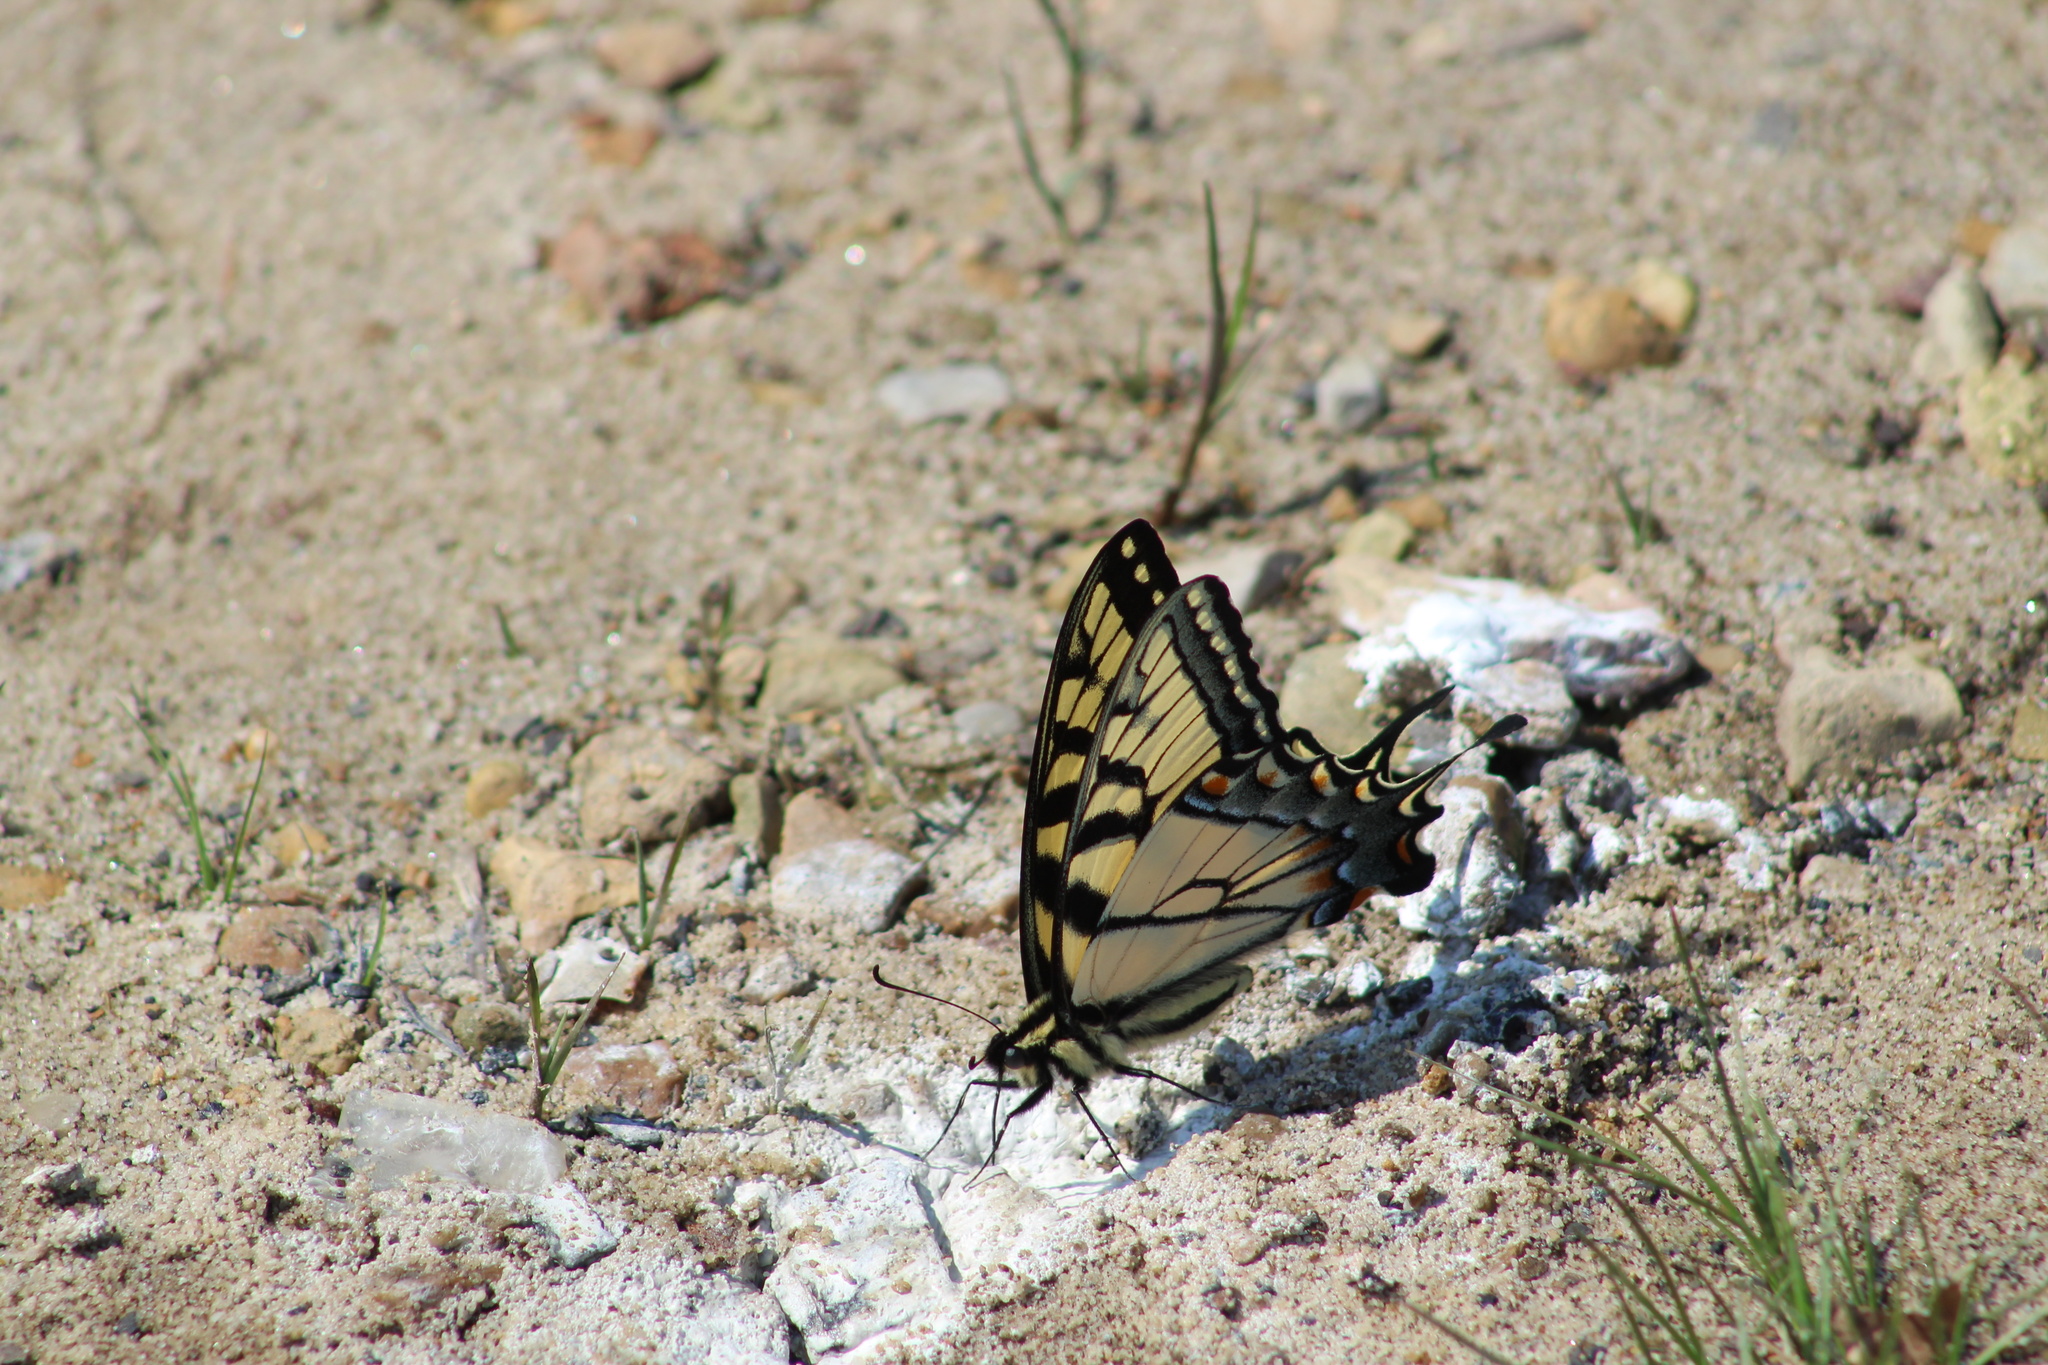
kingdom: Animalia
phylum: Arthropoda
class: Insecta
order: Lepidoptera
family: Papilionidae
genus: Papilio
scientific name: Papilio glaucus
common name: Tiger swallowtail
